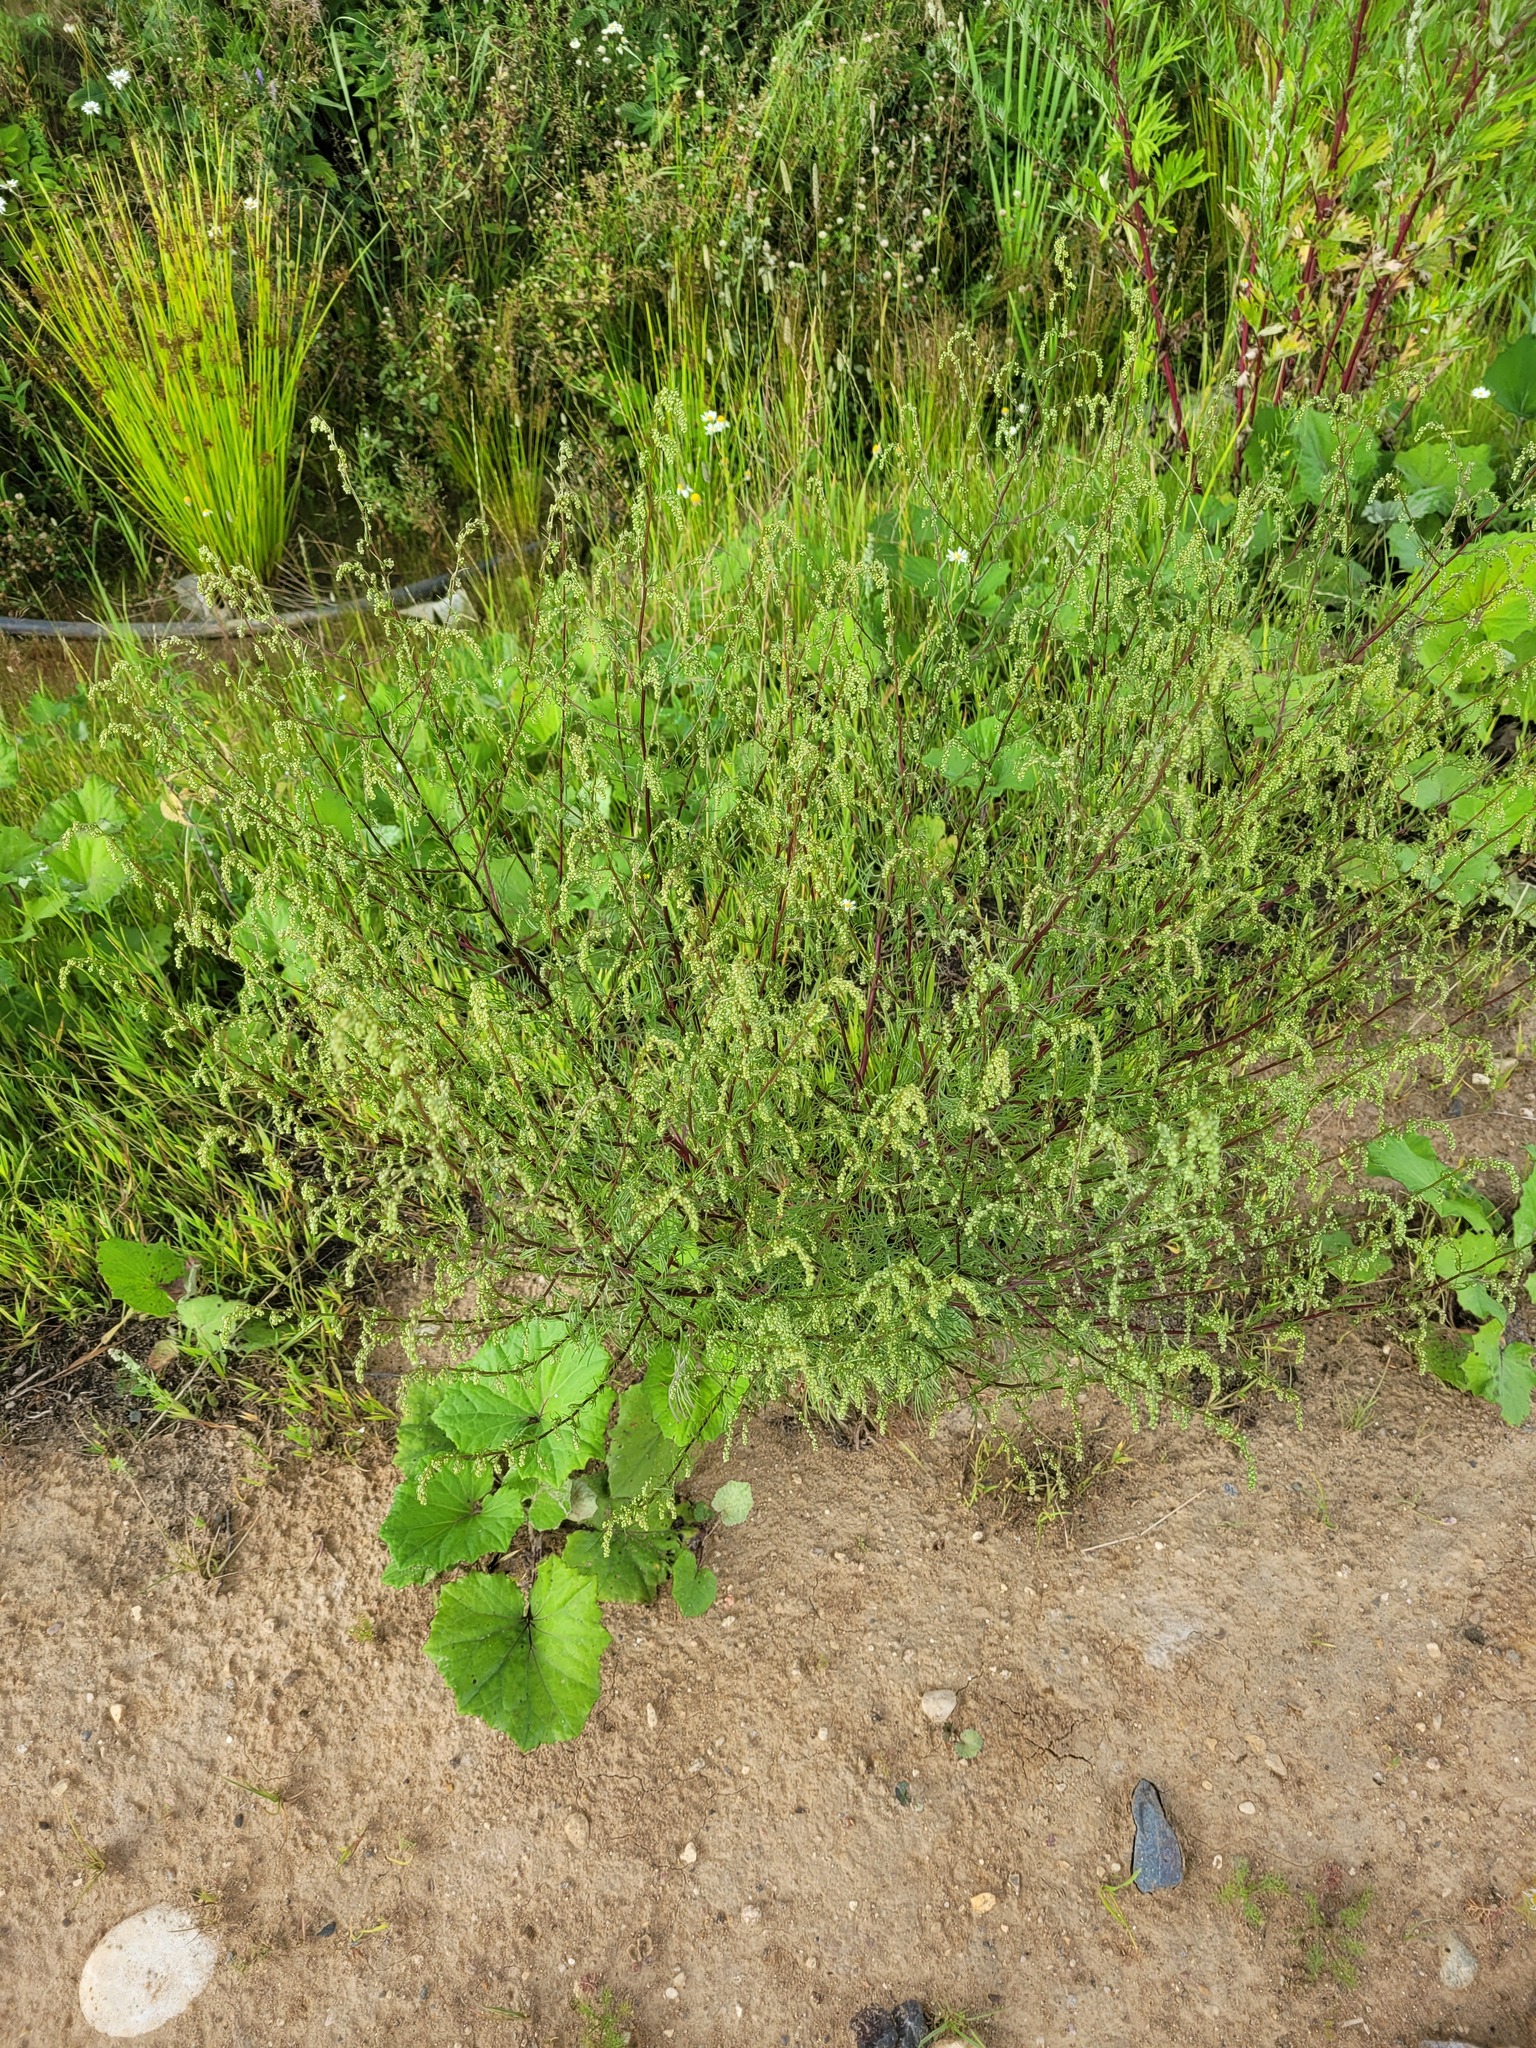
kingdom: Plantae
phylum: Tracheophyta
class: Magnoliopsida
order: Asterales
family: Asteraceae
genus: Artemisia
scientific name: Artemisia campestris
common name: Field wormwood
